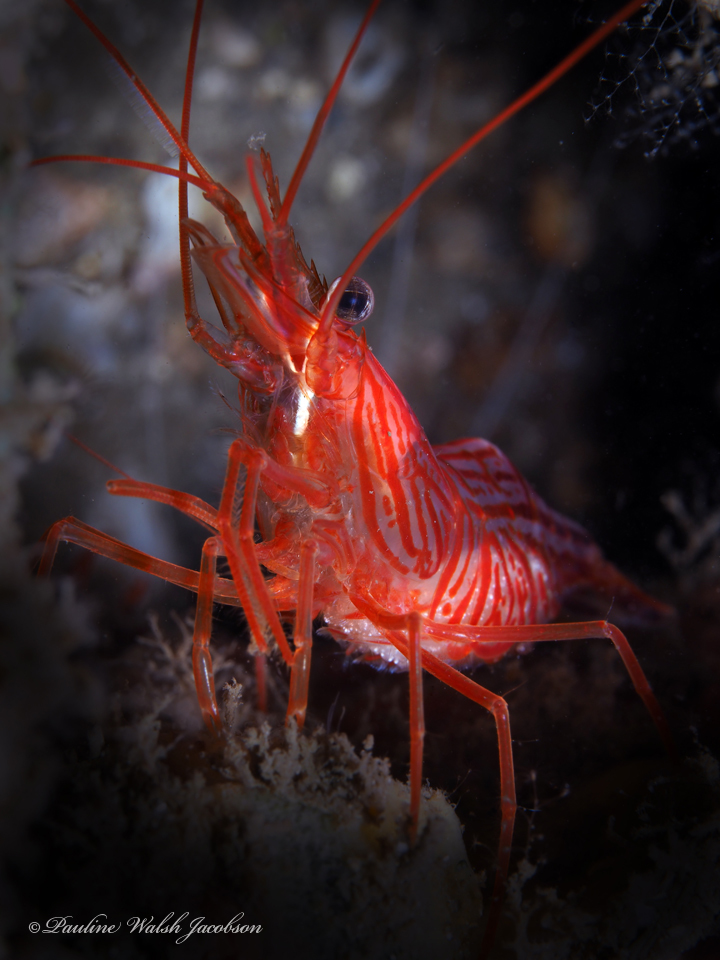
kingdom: Animalia
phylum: Arthropoda
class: Malacostraca
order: Decapoda
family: Lysmatidae
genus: Lysmata
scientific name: Lysmata rafa
